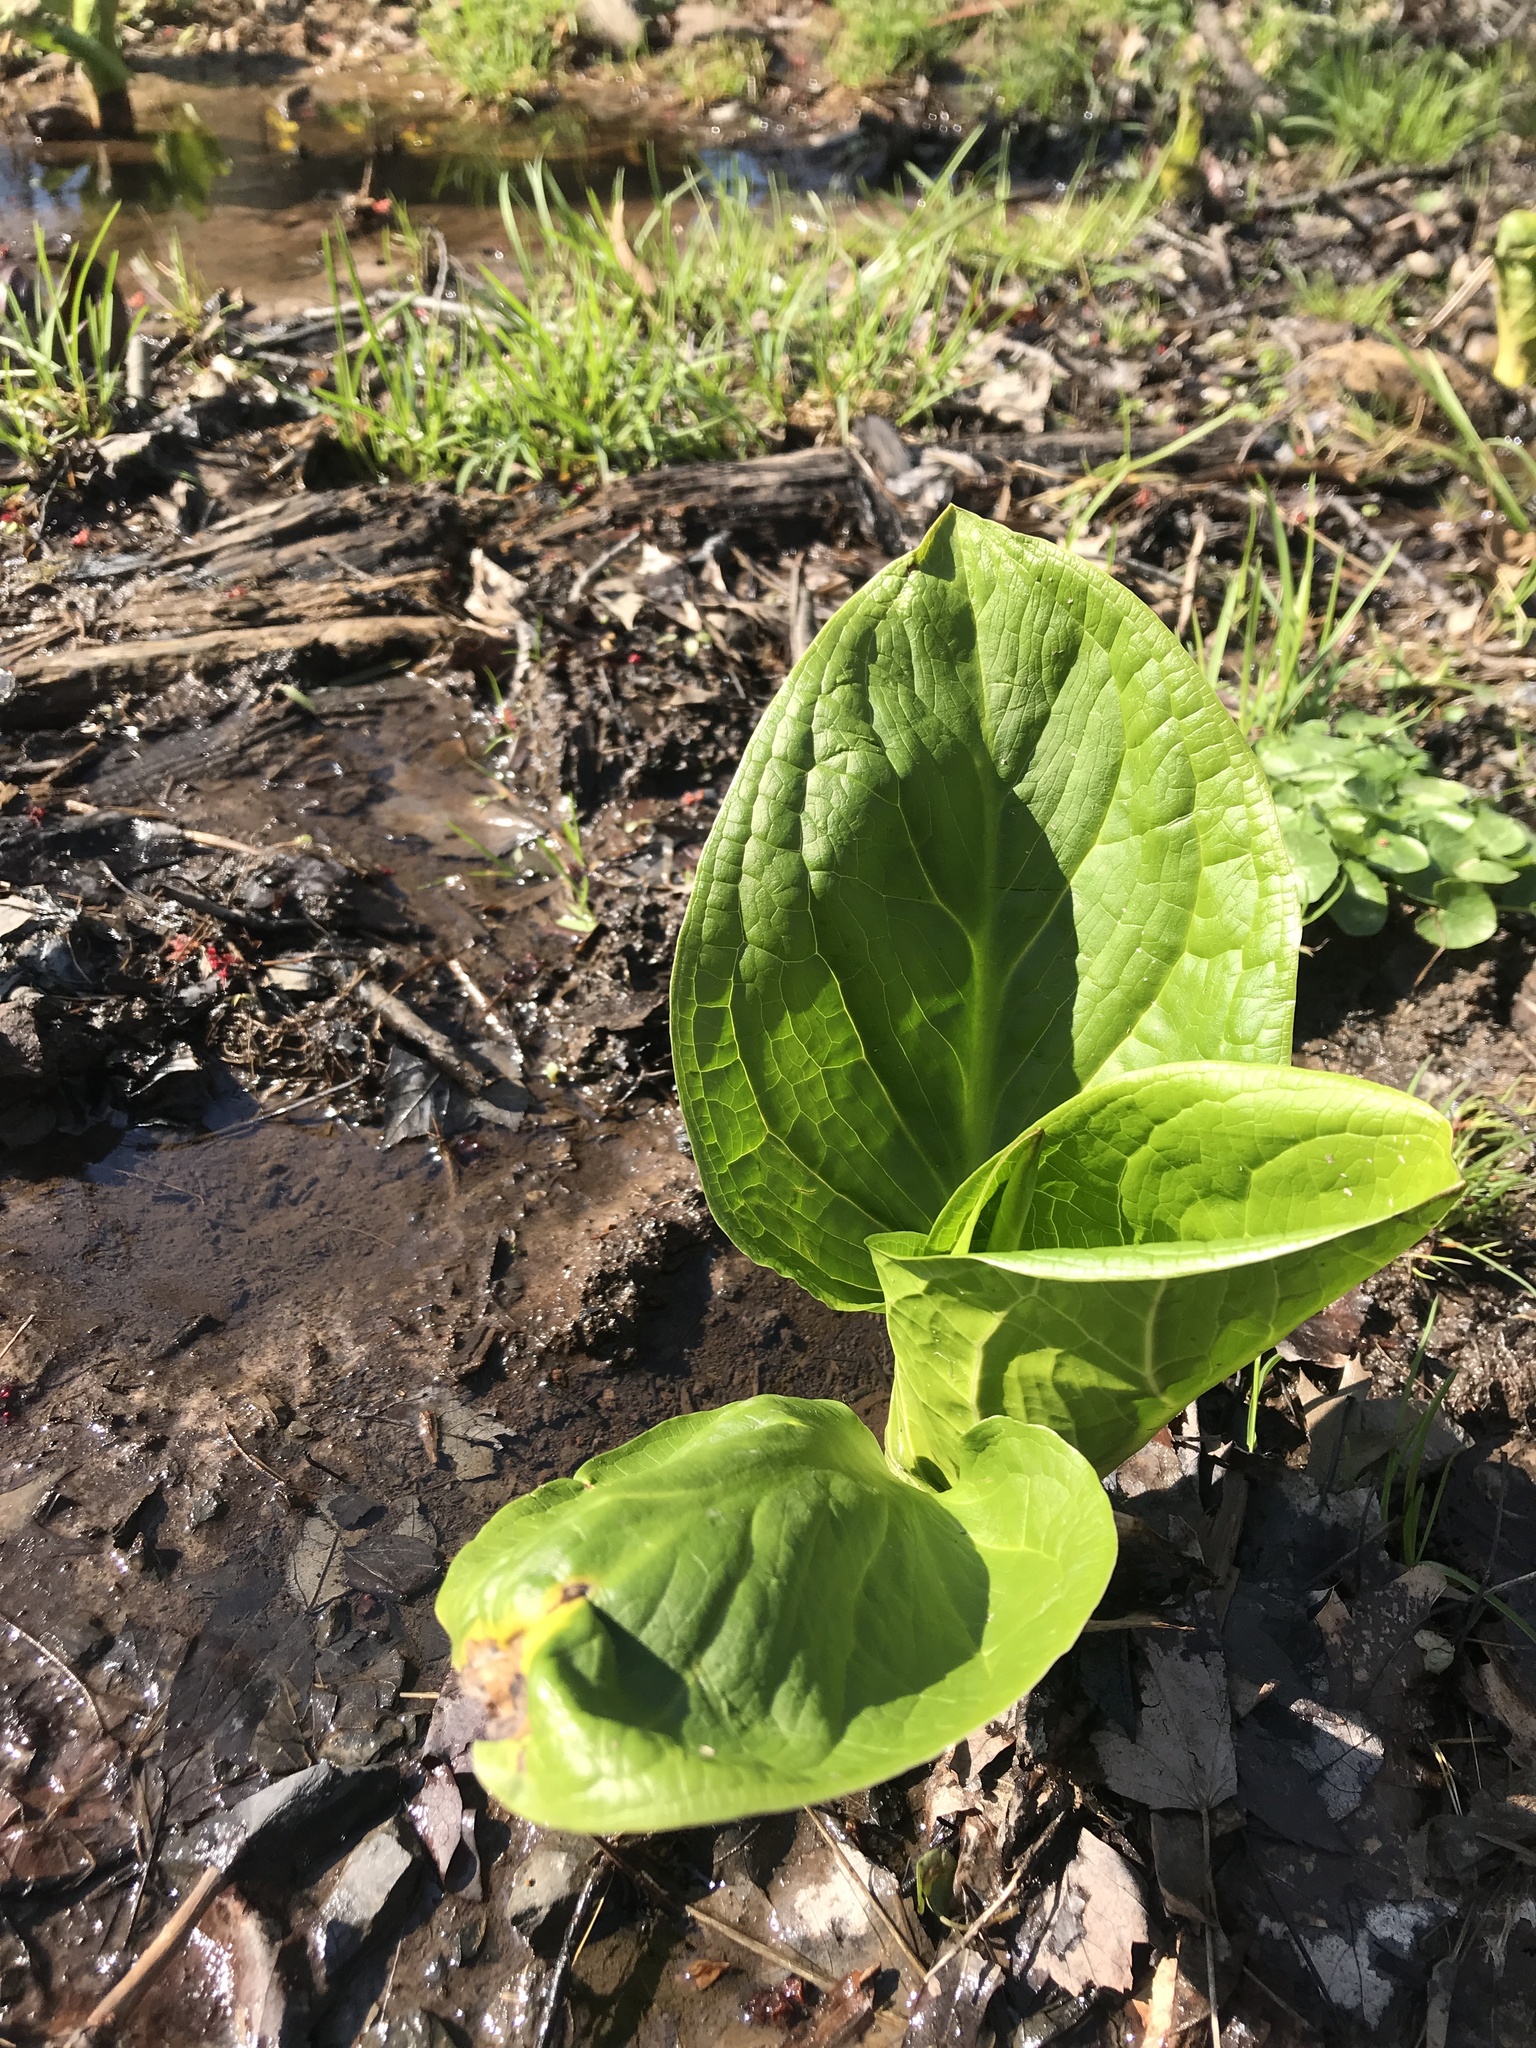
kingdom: Plantae
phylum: Tracheophyta
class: Liliopsida
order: Alismatales
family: Araceae
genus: Symplocarpus
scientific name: Symplocarpus foetidus
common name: Eastern skunk cabbage
